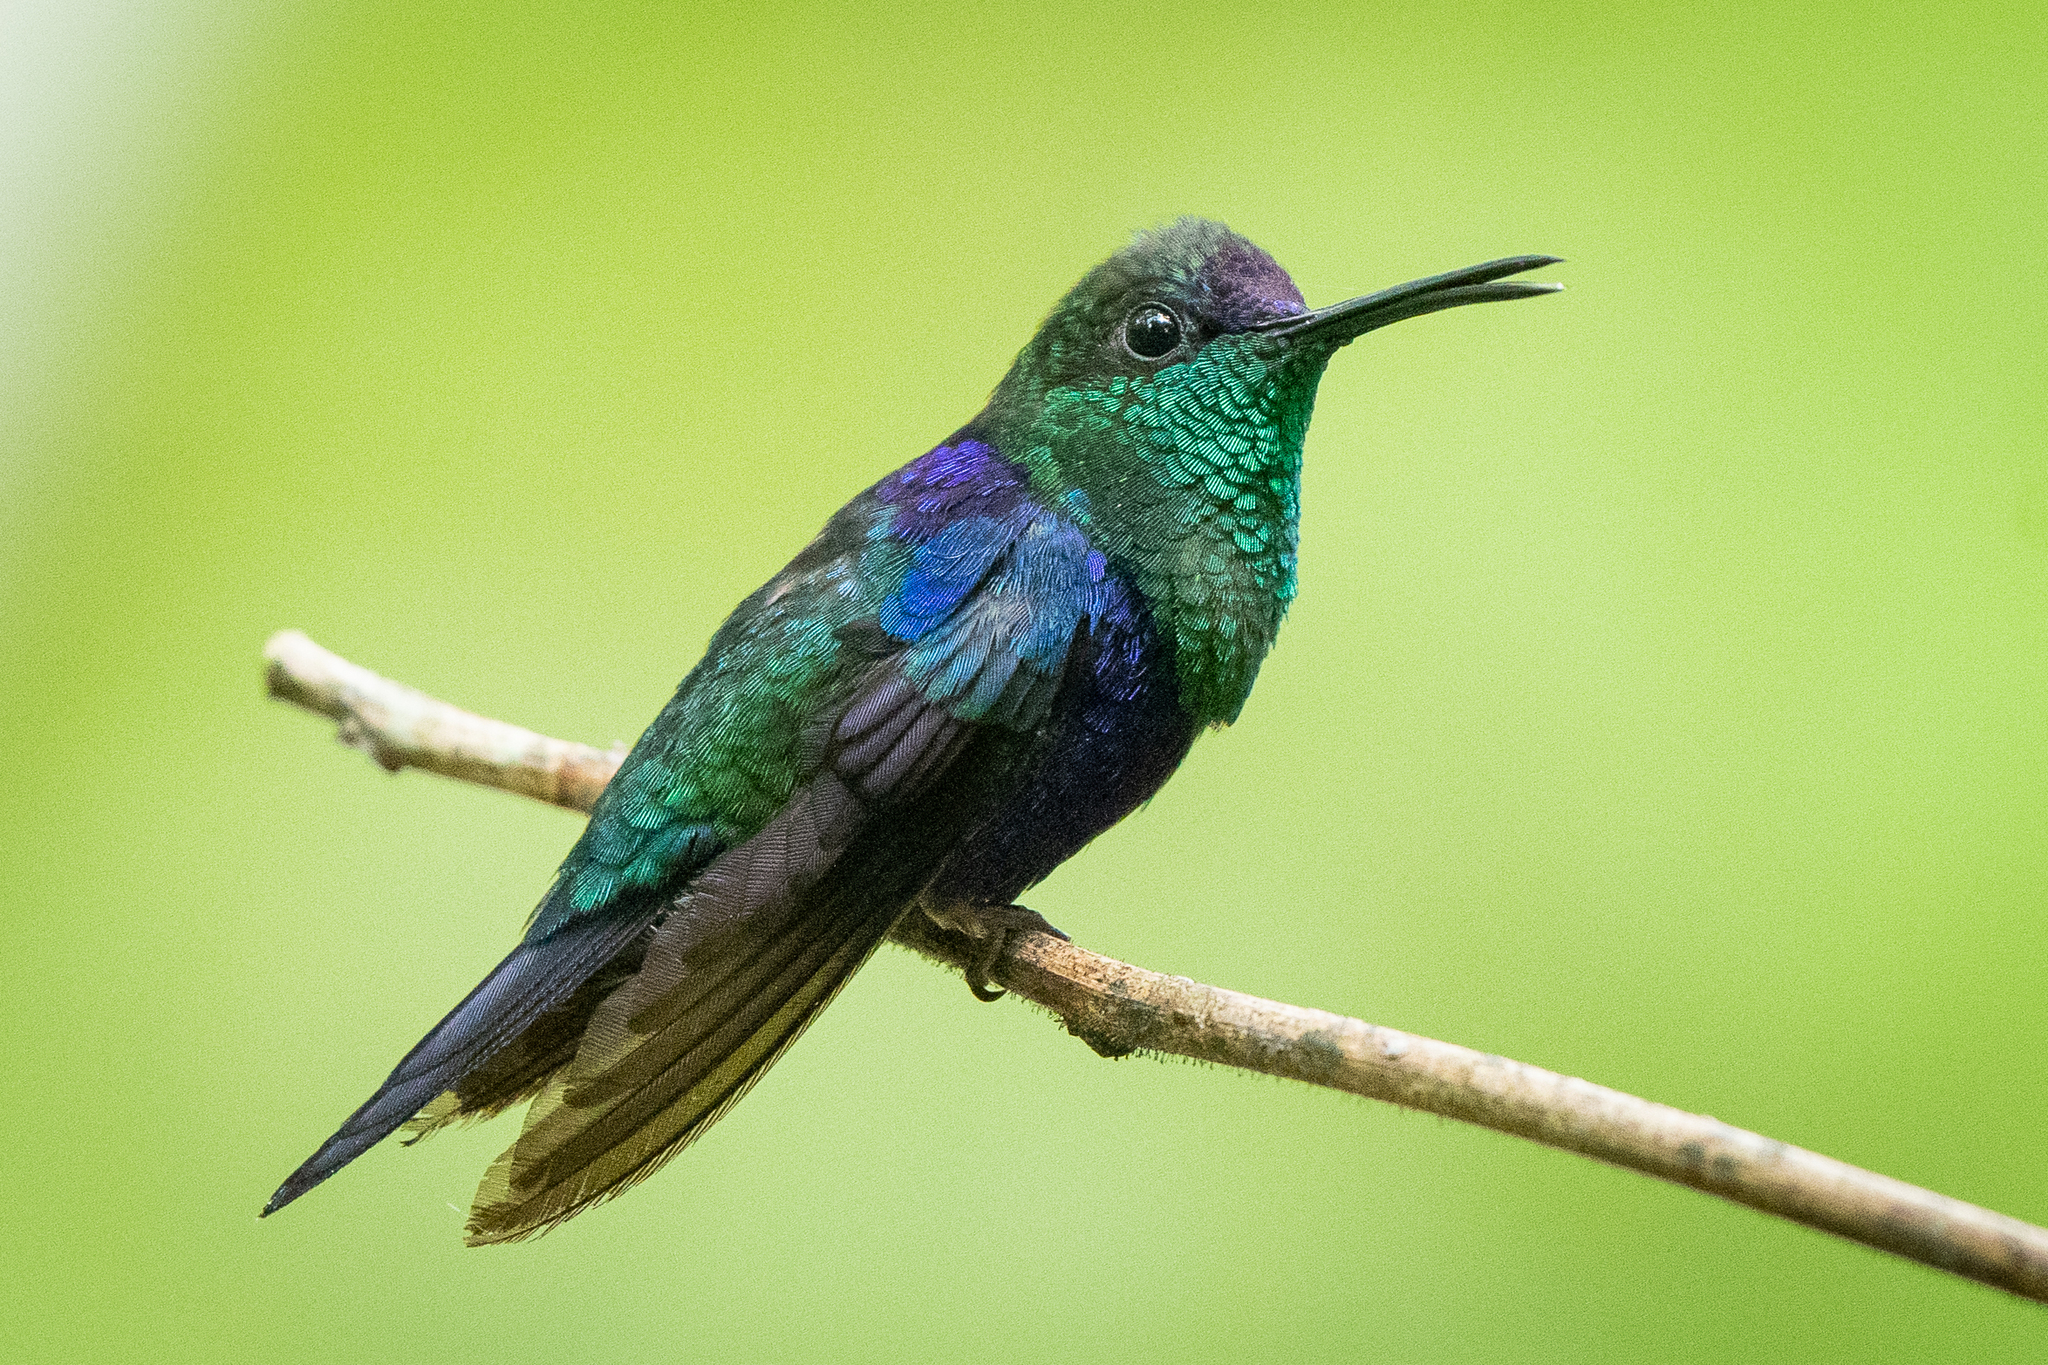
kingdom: Animalia
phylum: Chordata
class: Aves
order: Apodiformes
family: Trochilidae
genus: Thalurania
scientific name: Thalurania colombica
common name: Crowned woodnymph
